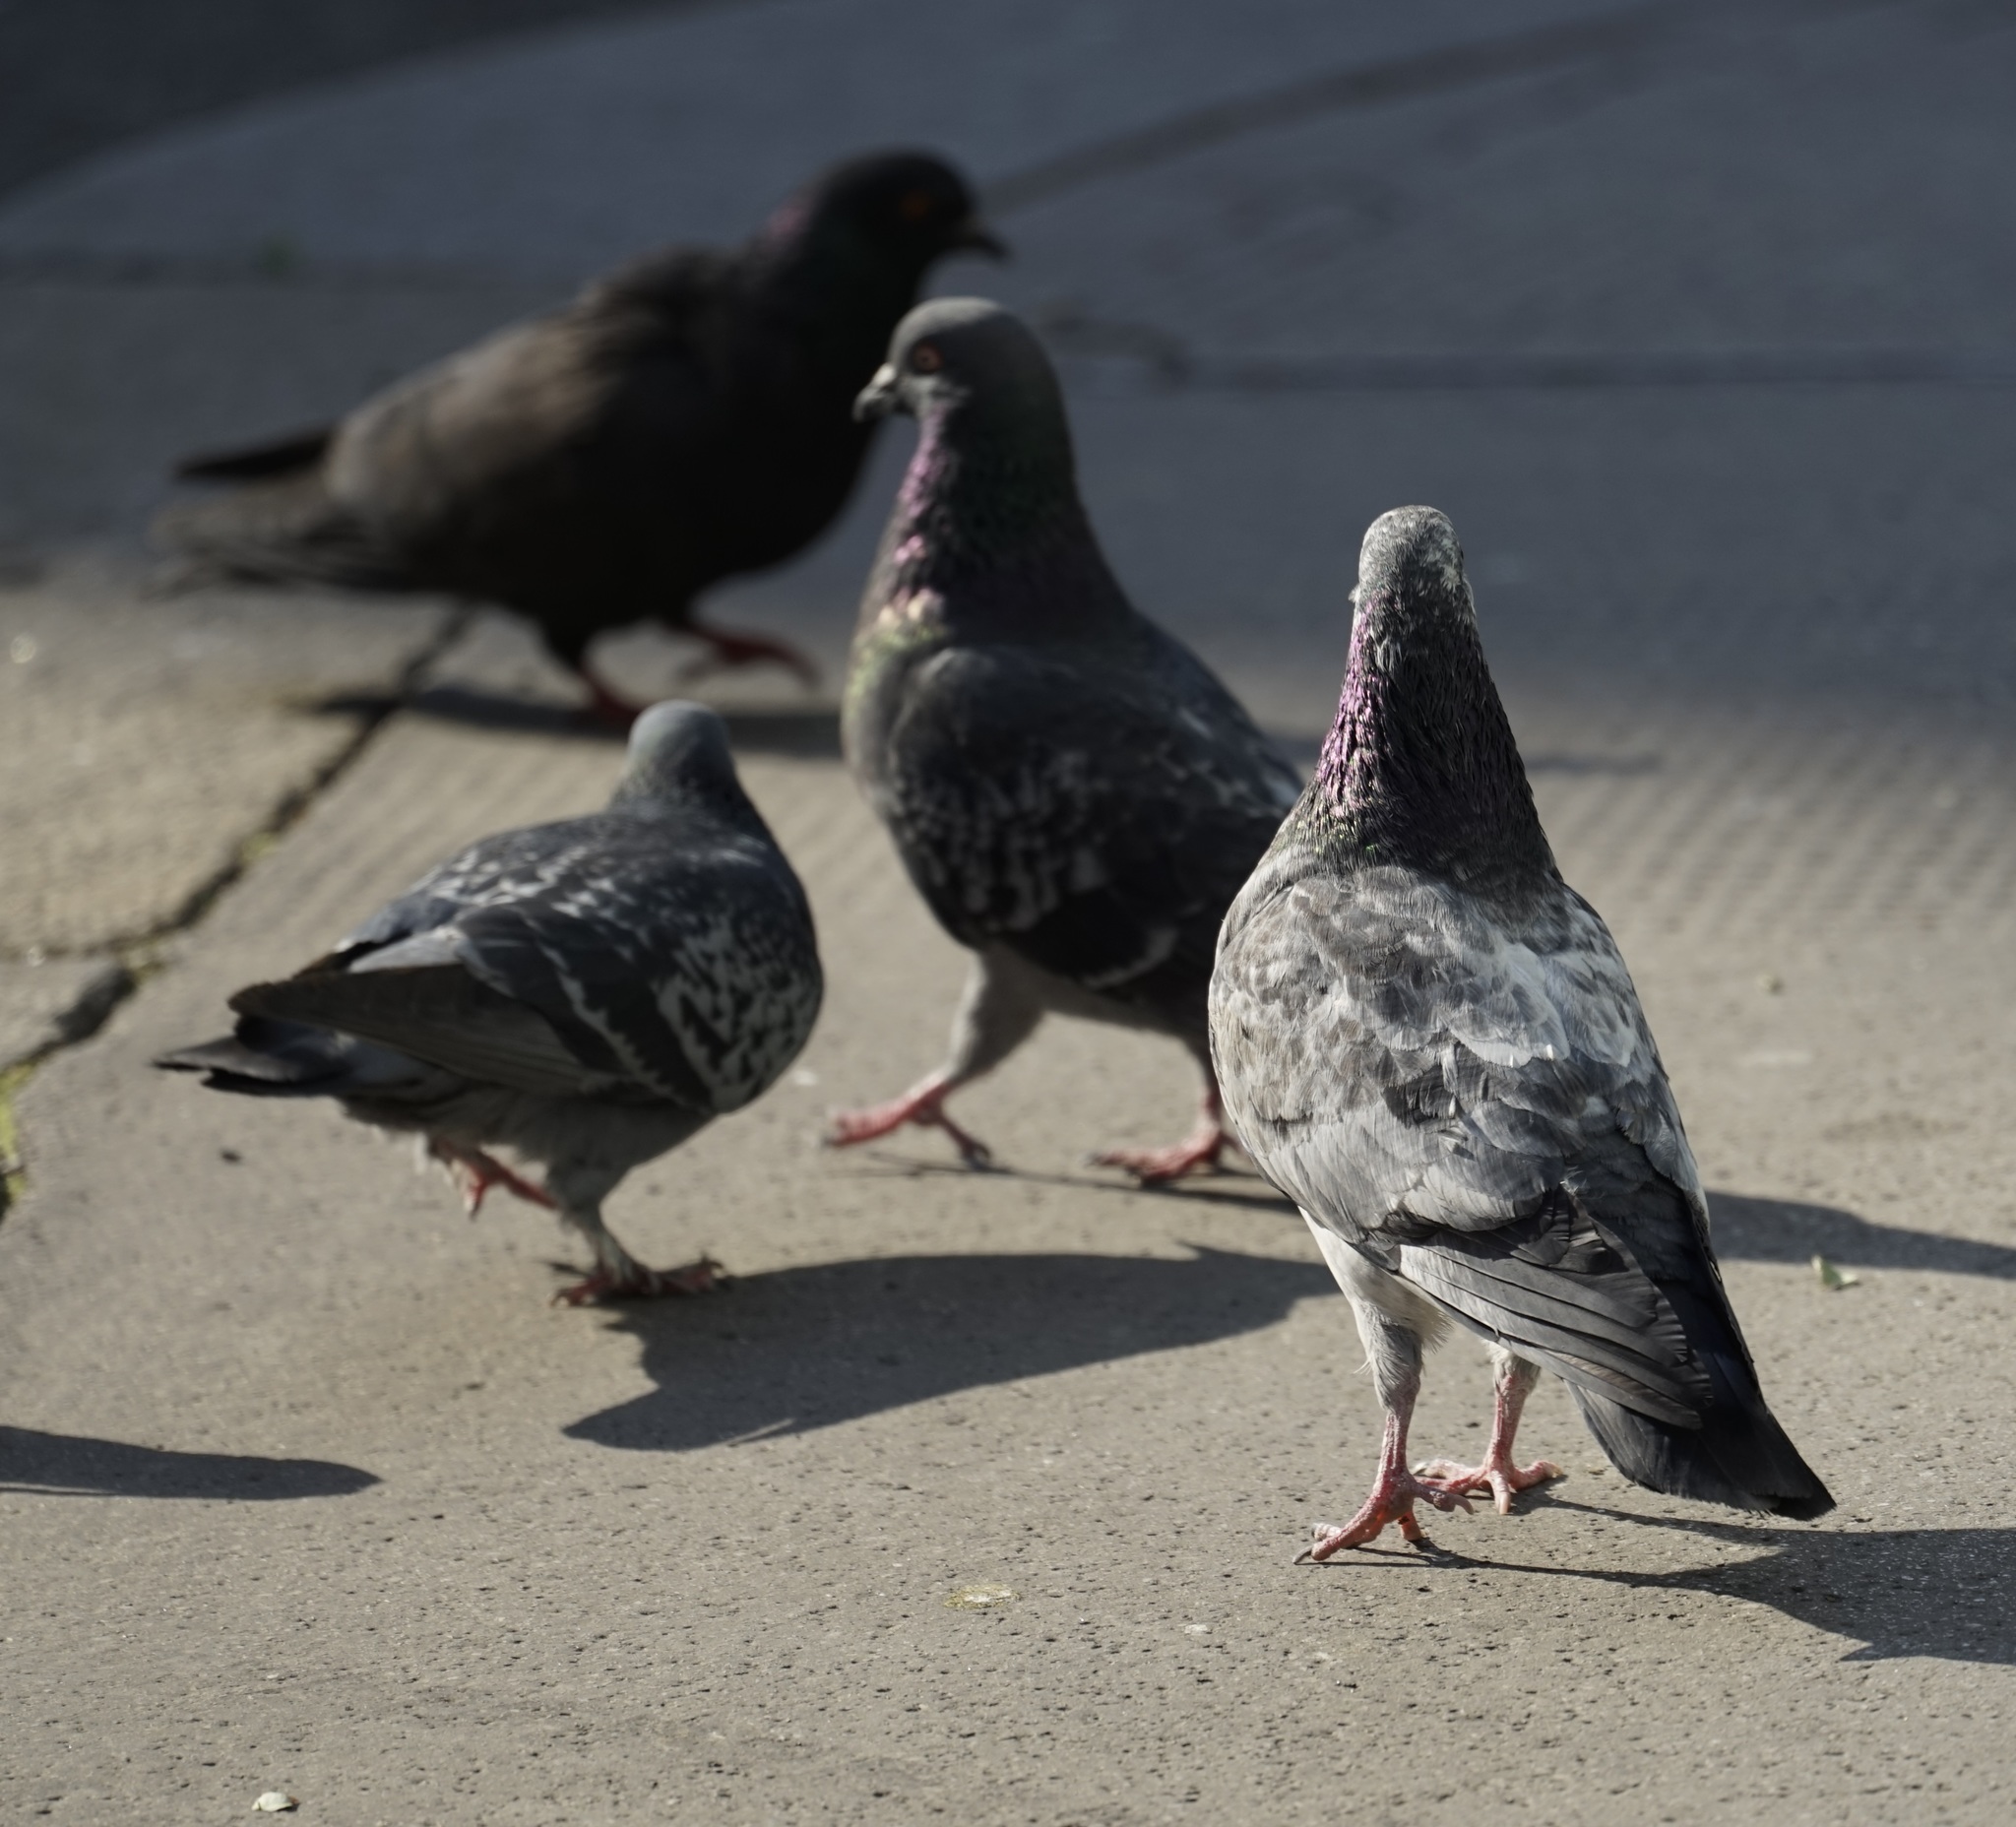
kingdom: Animalia
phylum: Chordata
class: Aves
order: Columbiformes
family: Columbidae
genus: Columba
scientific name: Columba livia
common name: Rock pigeon
